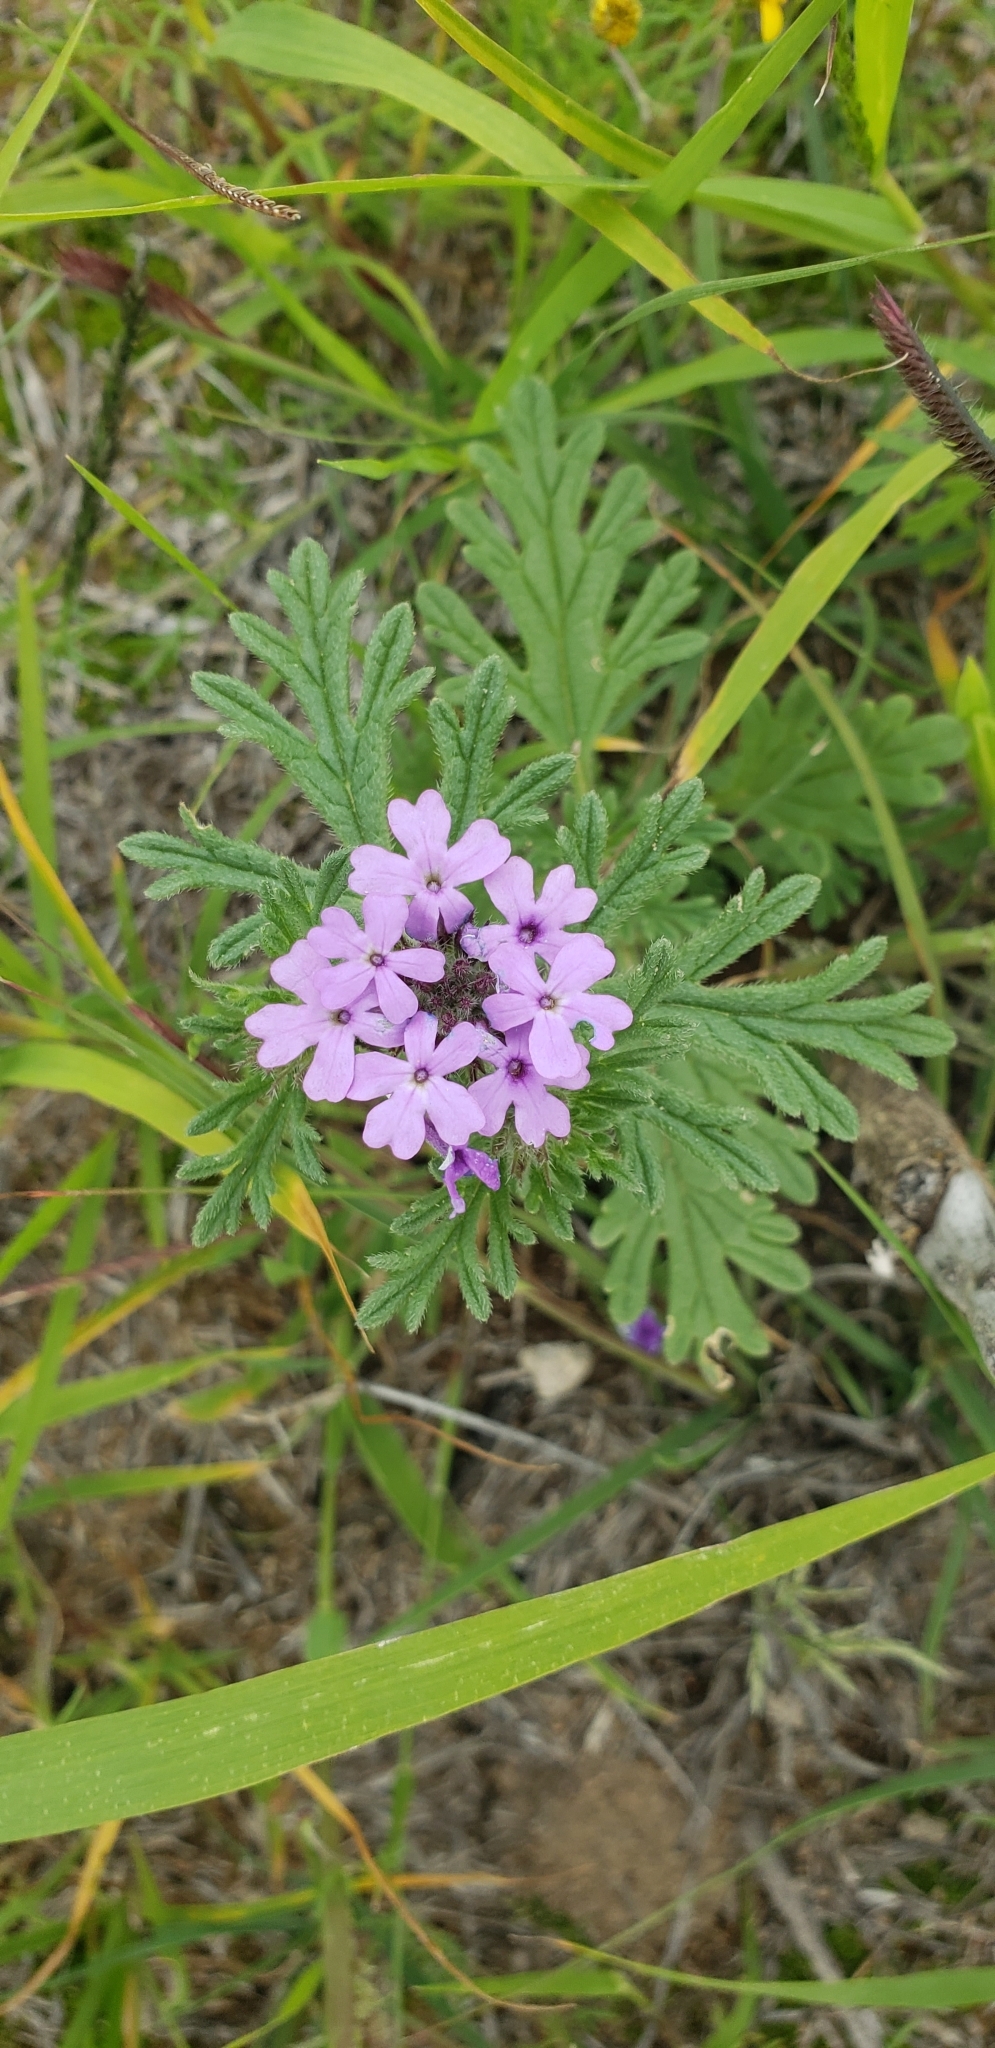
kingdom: Plantae
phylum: Tracheophyta
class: Magnoliopsida
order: Lamiales
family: Verbenaceae
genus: Verbena
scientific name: Verbena bipinnatifida
